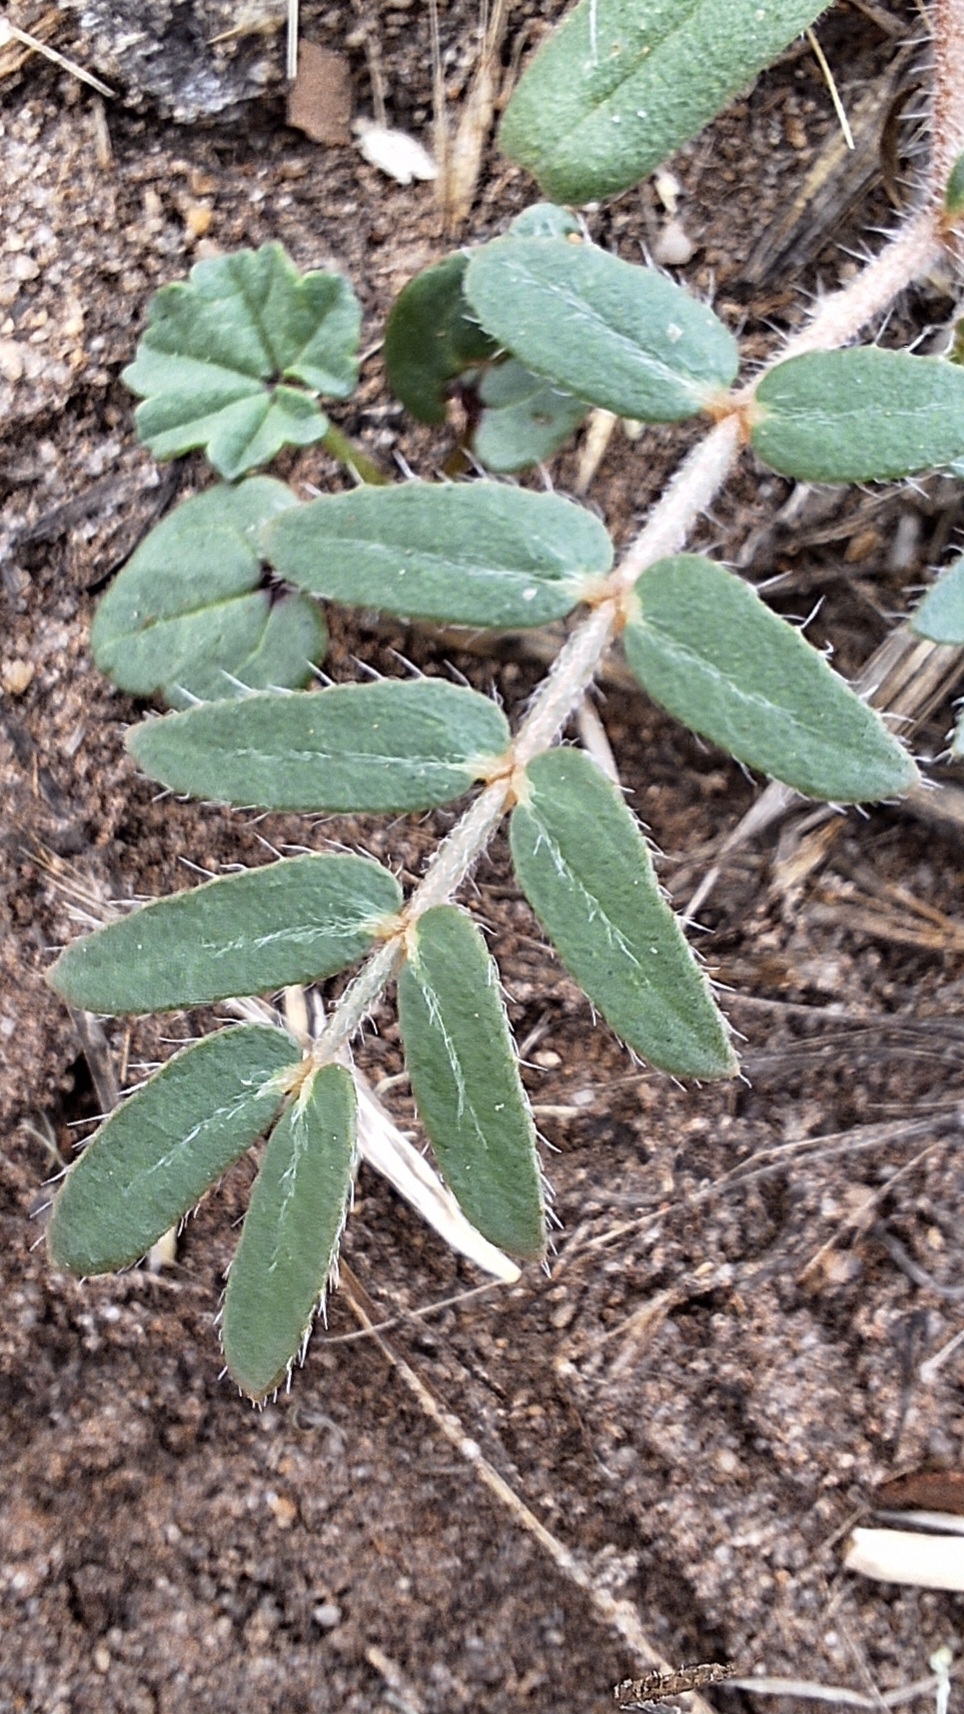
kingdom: Plantae
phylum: Tracheophyta
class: Magnoliopsida
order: Zygophyllales
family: Zygophyllaceae
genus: Tribulus
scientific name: Tribulus terrestris
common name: Puncturevine
